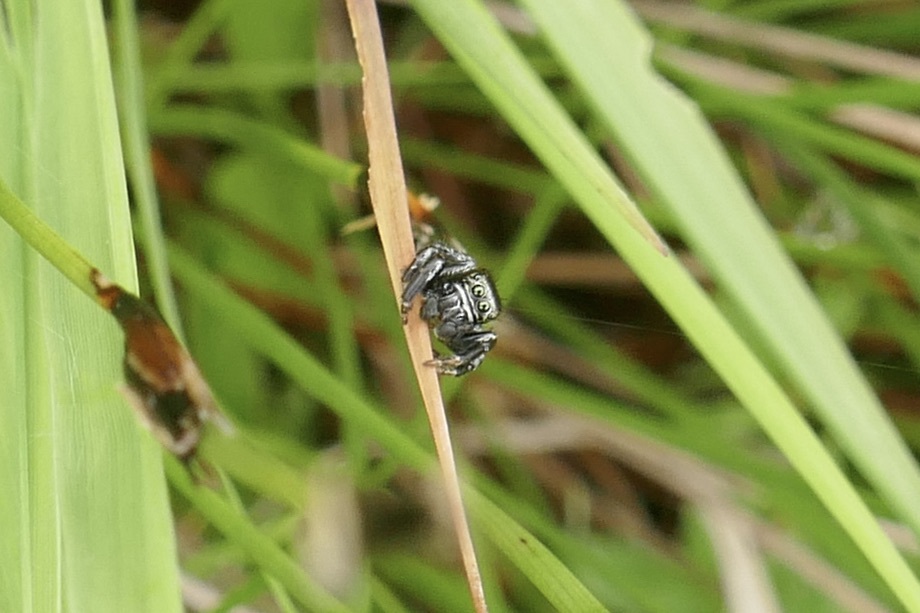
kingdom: Animalia
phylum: Arthropoda
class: Arachnida
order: Araneae
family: Salticidae
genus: Evarcha
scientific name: Evarcha arcuata
